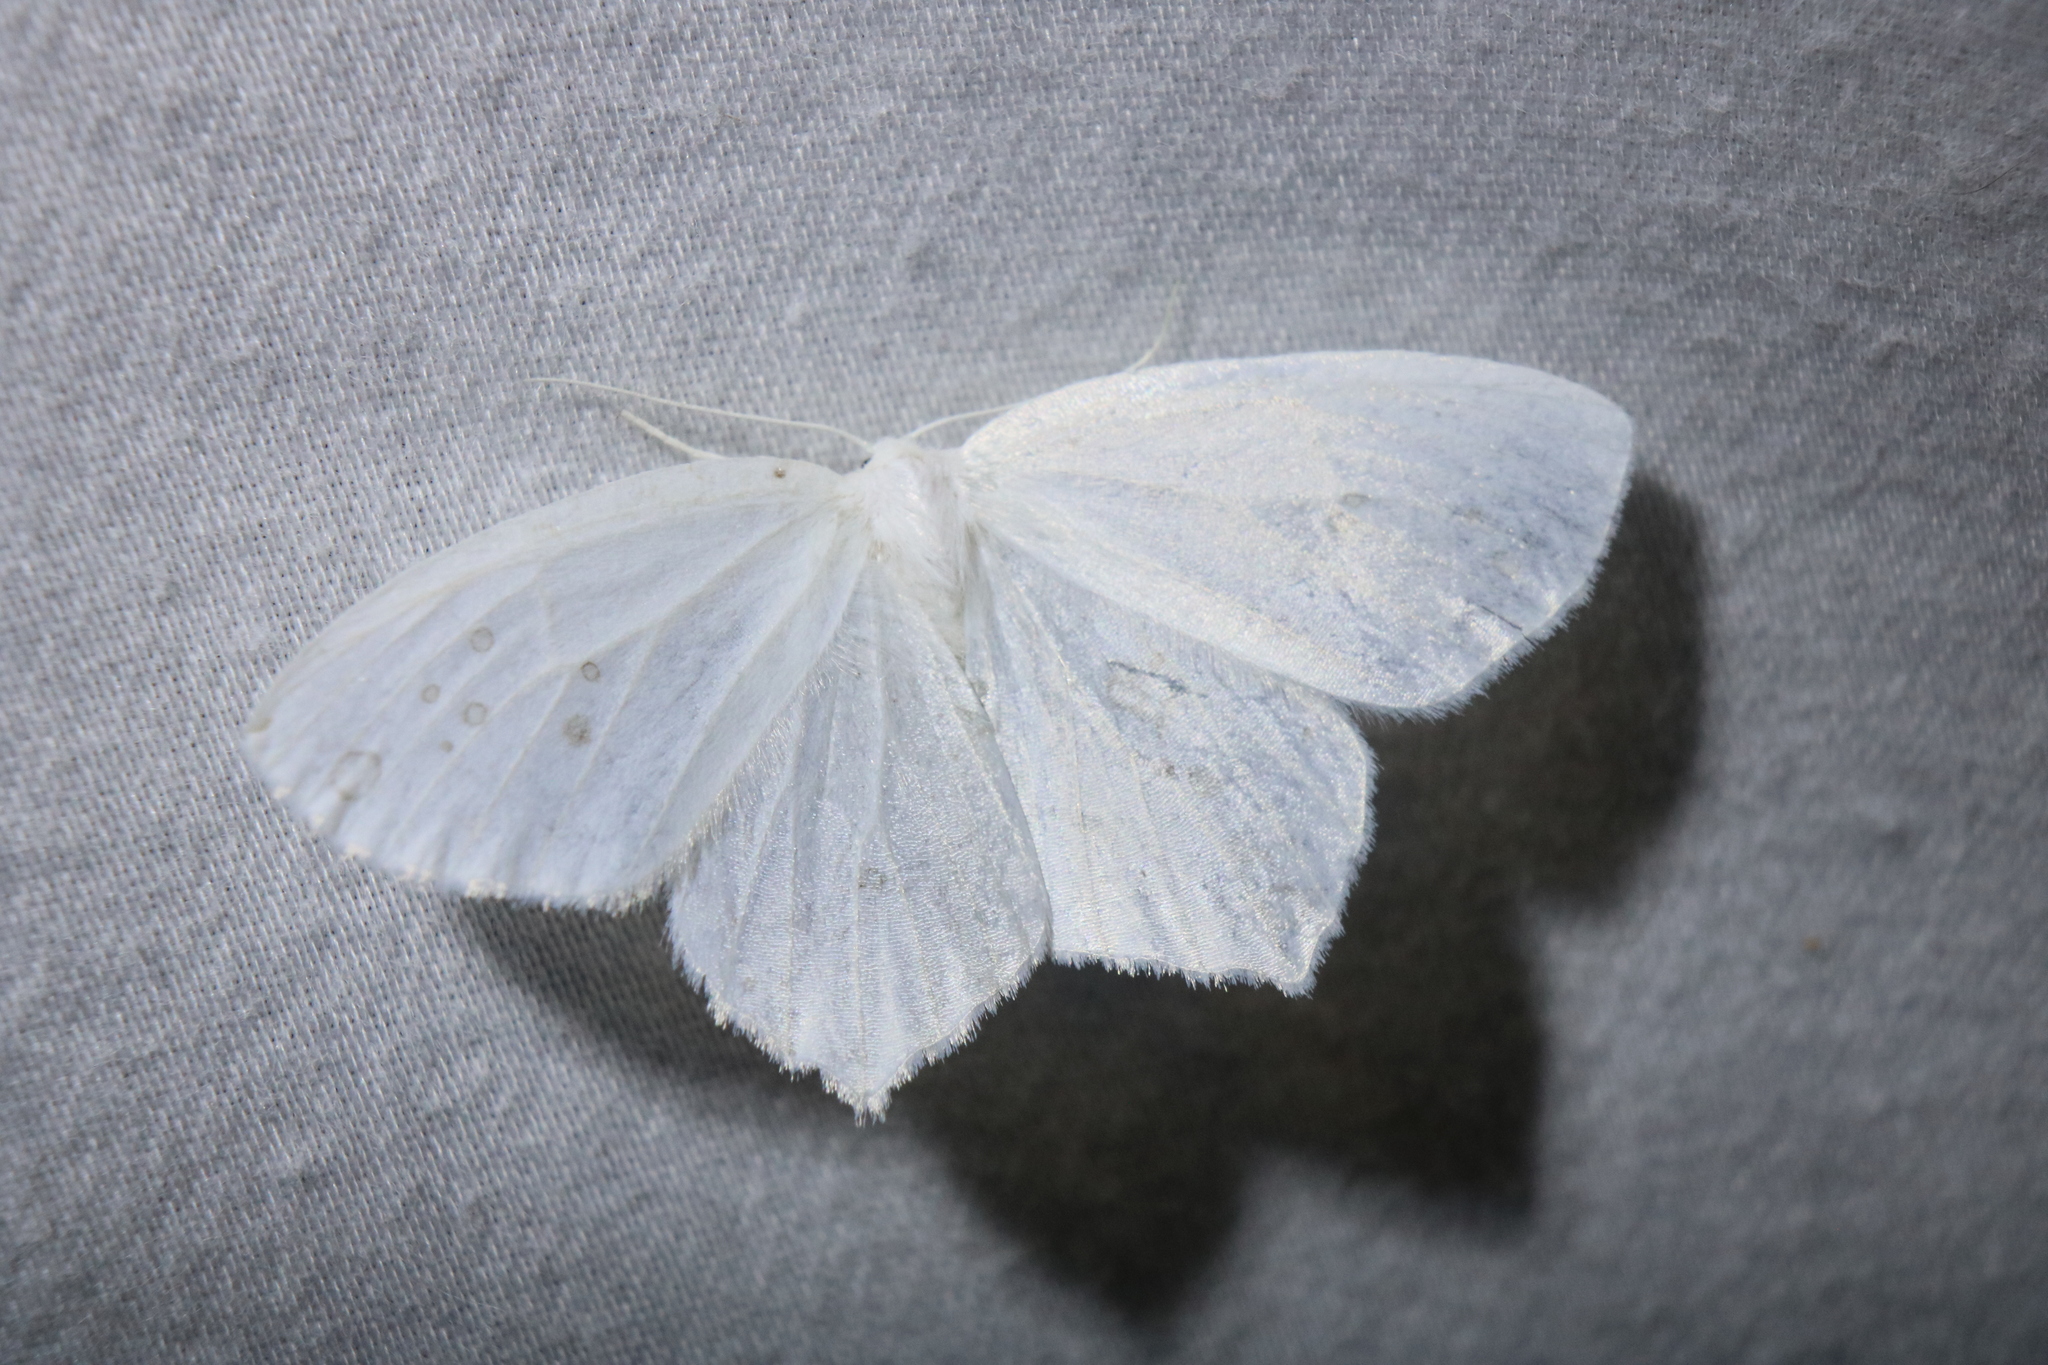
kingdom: Animalia
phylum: Arthropoda
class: Insecta
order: Lepidoptera
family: Geometridae
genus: Eugonobapta
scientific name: Eugonobapta nivosaria
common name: Snowy geometer
